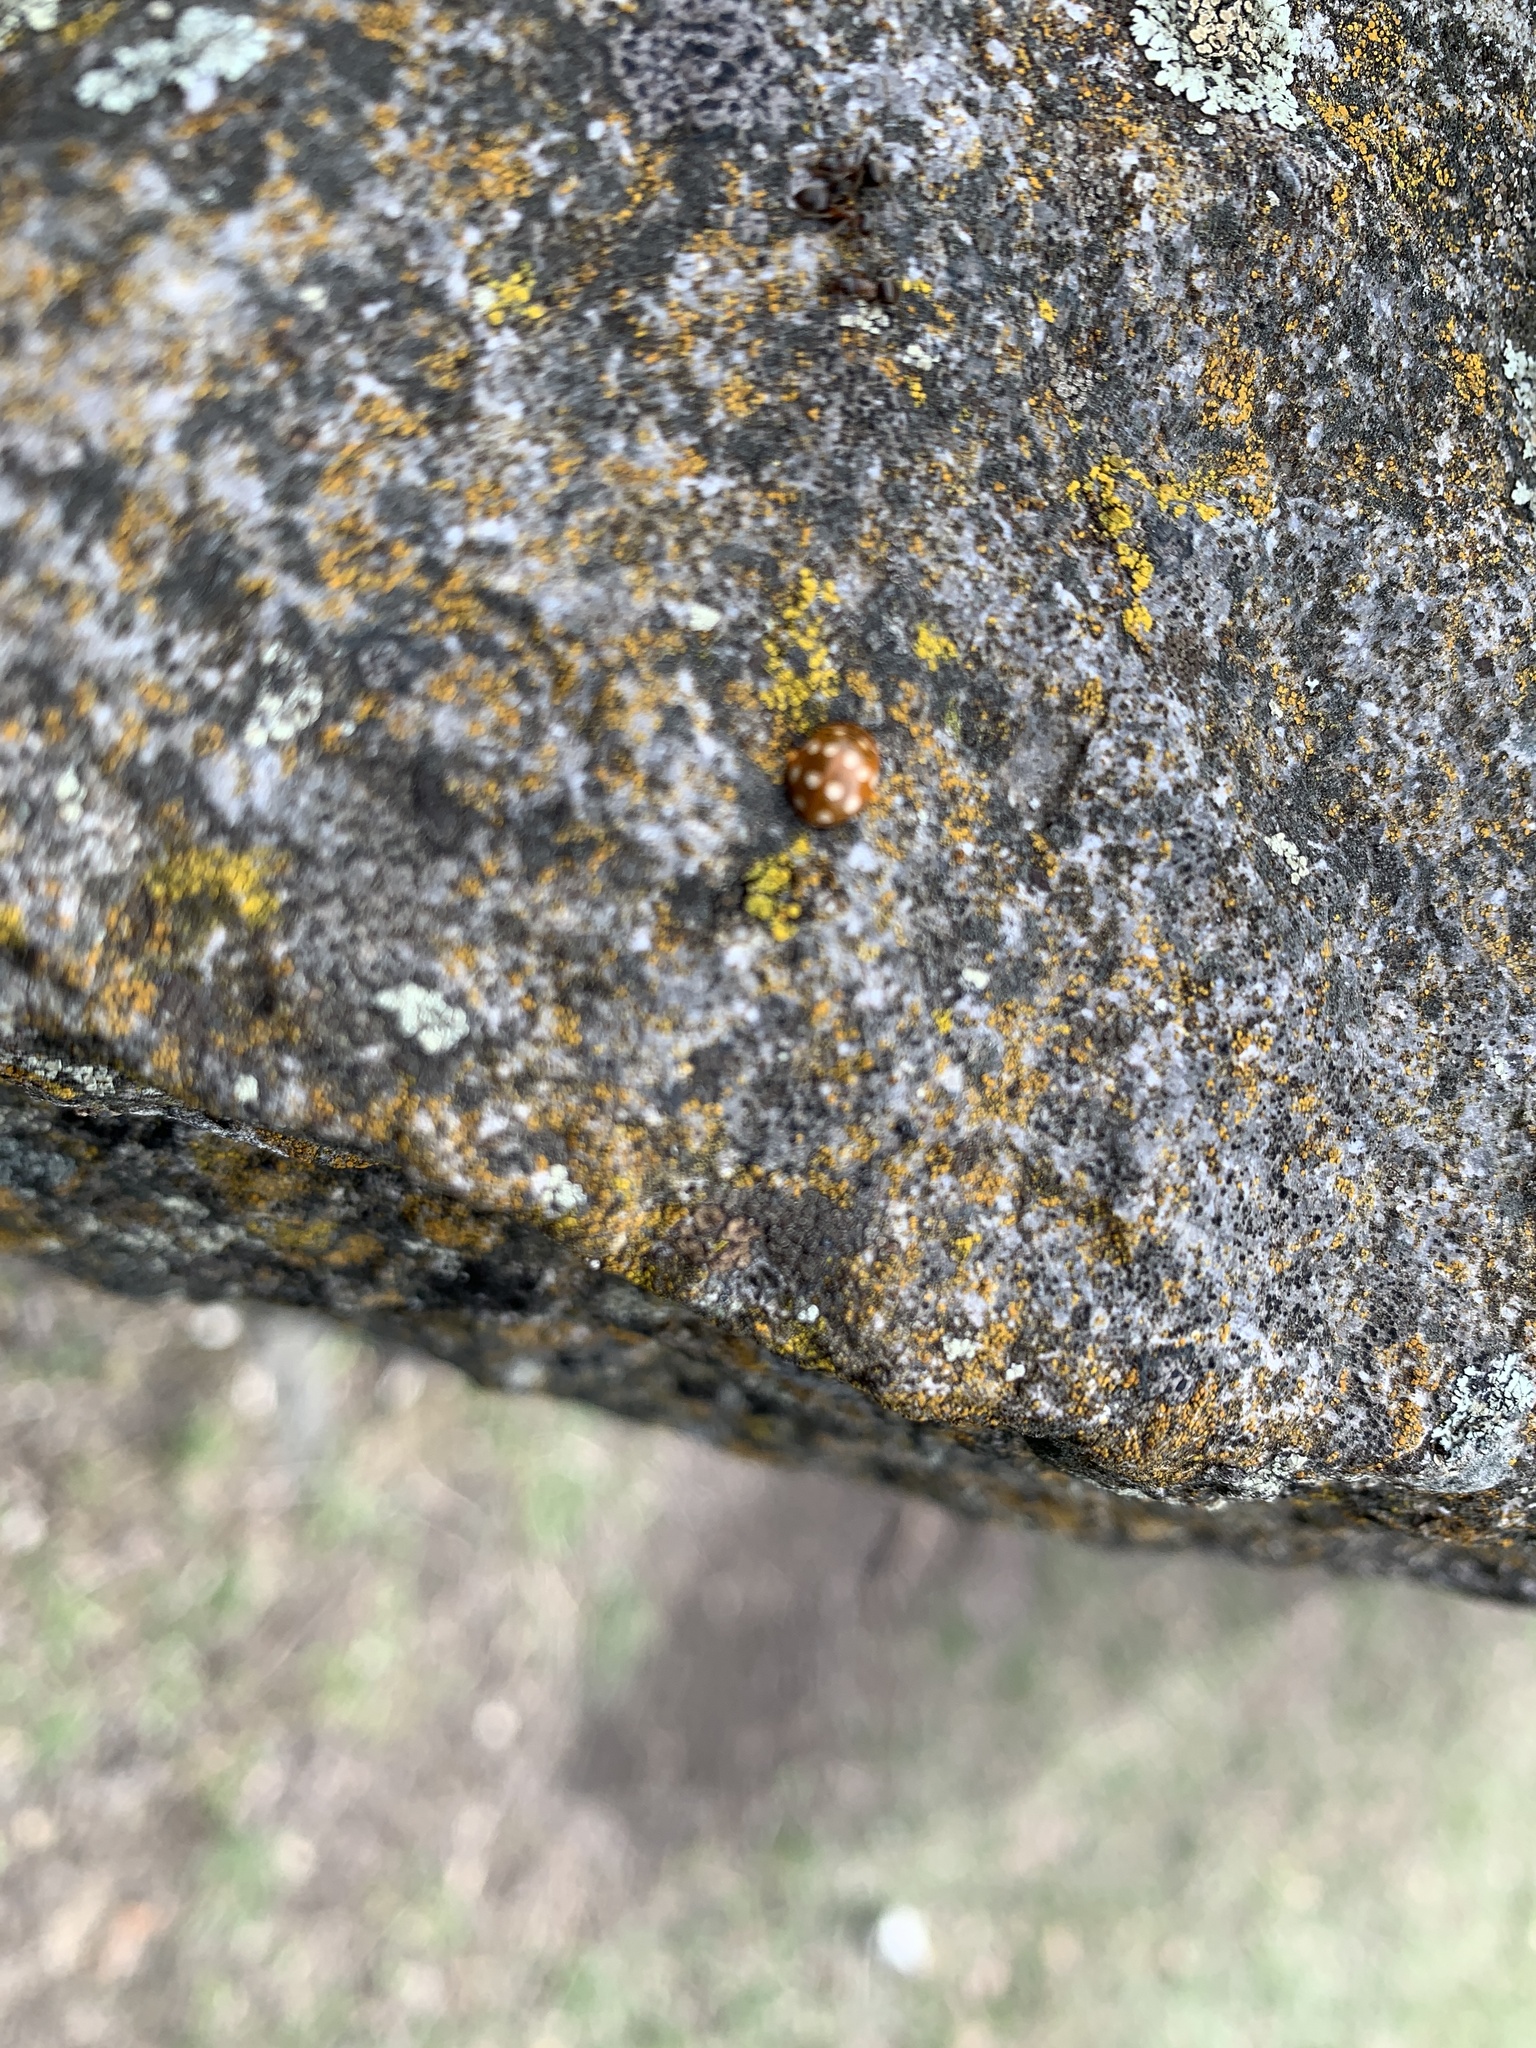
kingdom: Animalia
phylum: Arthropoda
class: Insecta
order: Coleoptera
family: Coccinellidae
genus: Calvia
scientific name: Calvia quatuordecimguttata
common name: Cream-spot ladybird
